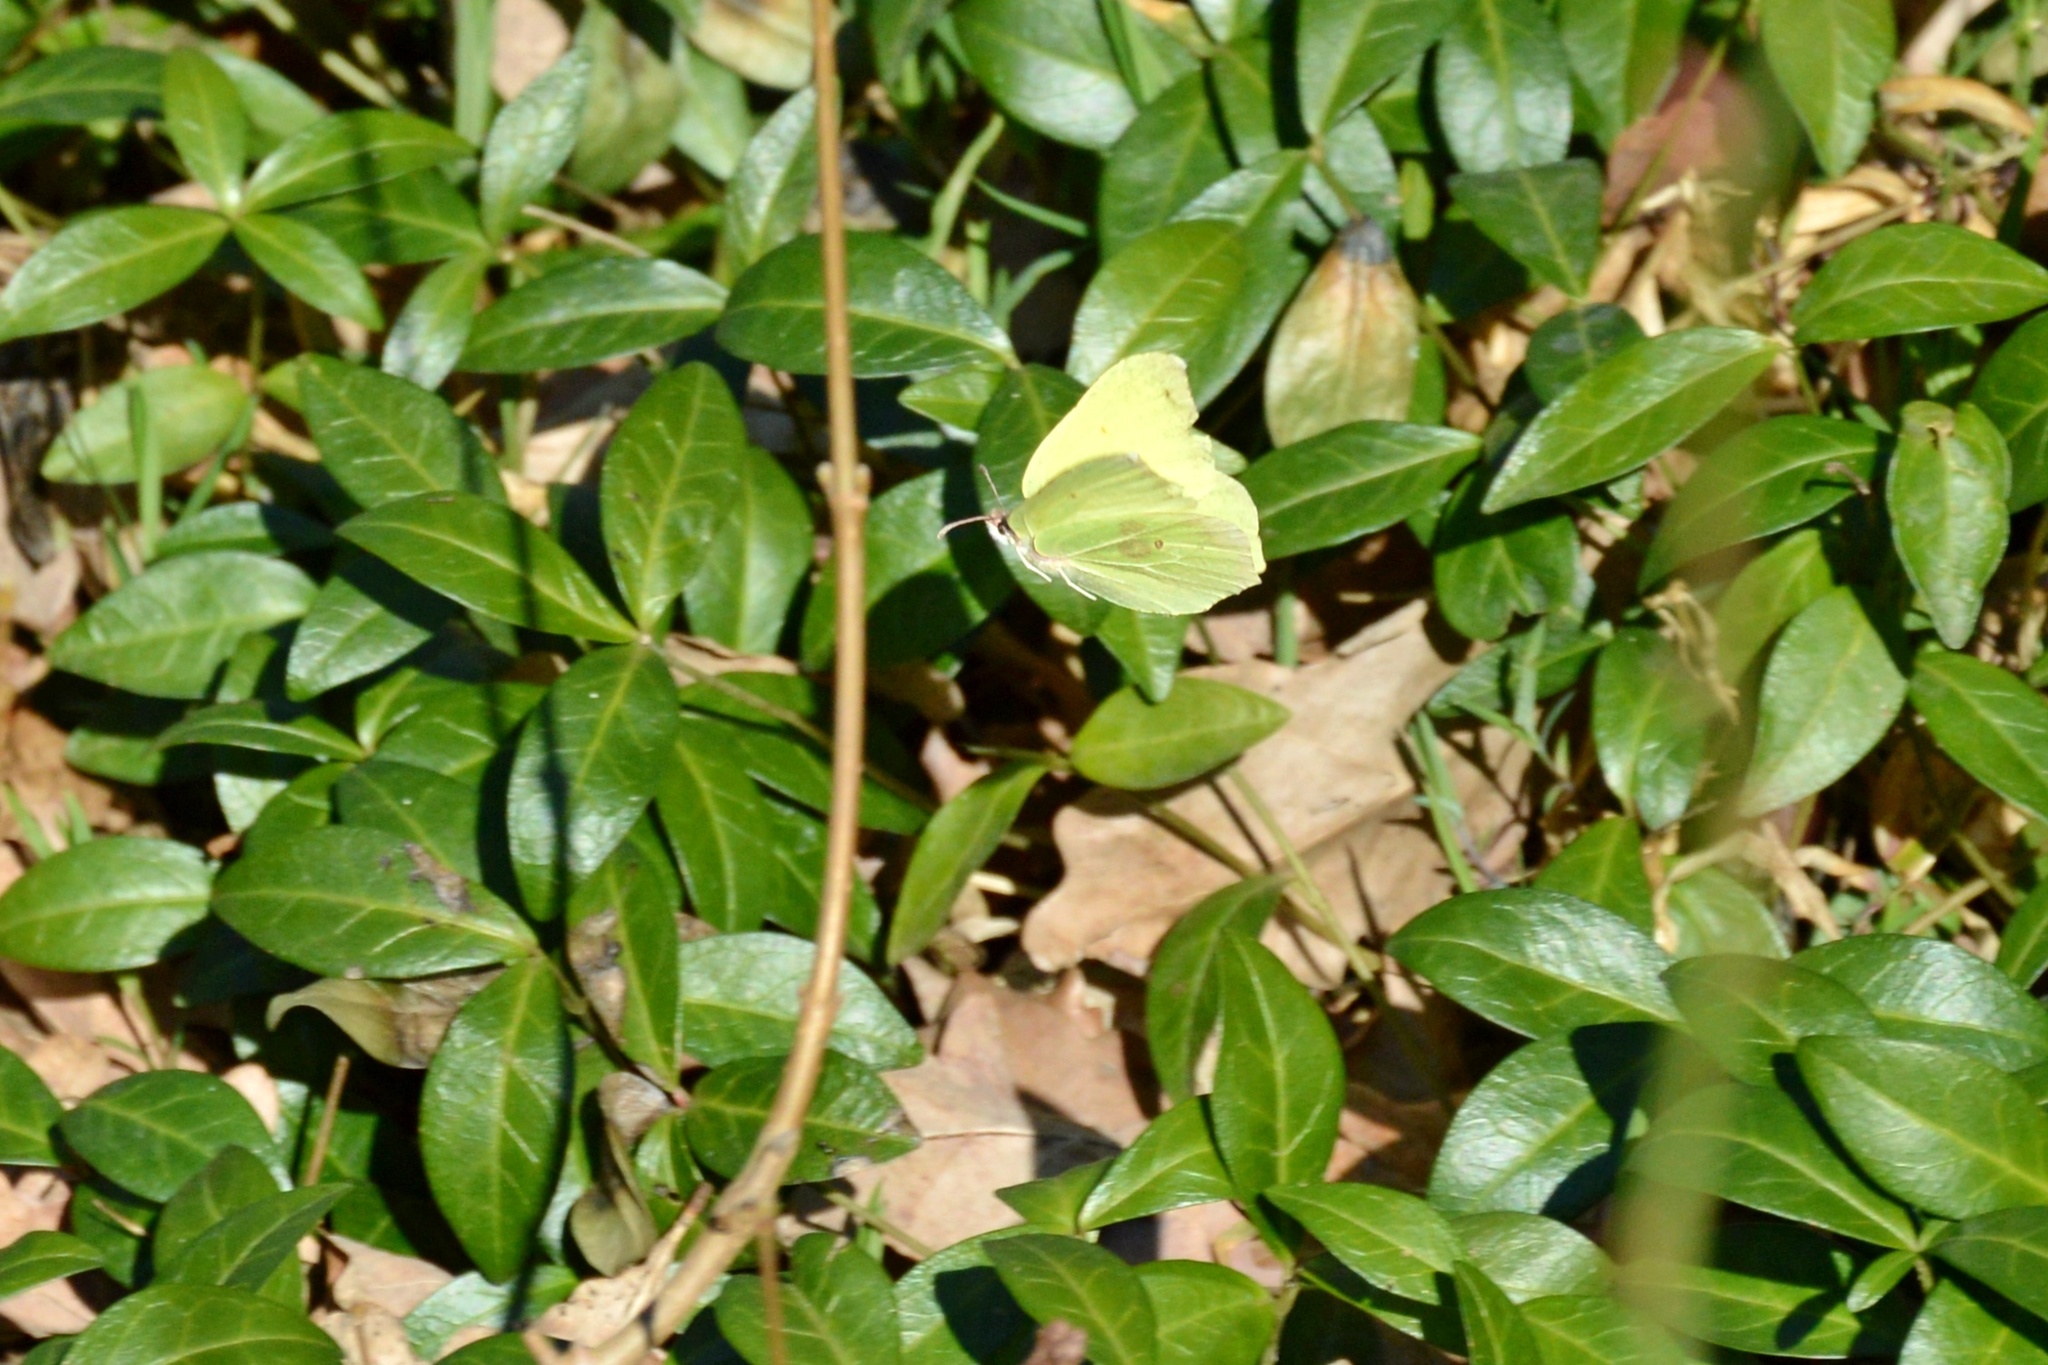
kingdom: Animalia
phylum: Arthropoda
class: Insecta
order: Lepidoptera
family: Pieridae
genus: Gonepteryx
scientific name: Gonepteryx rhamni
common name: Brimstone
